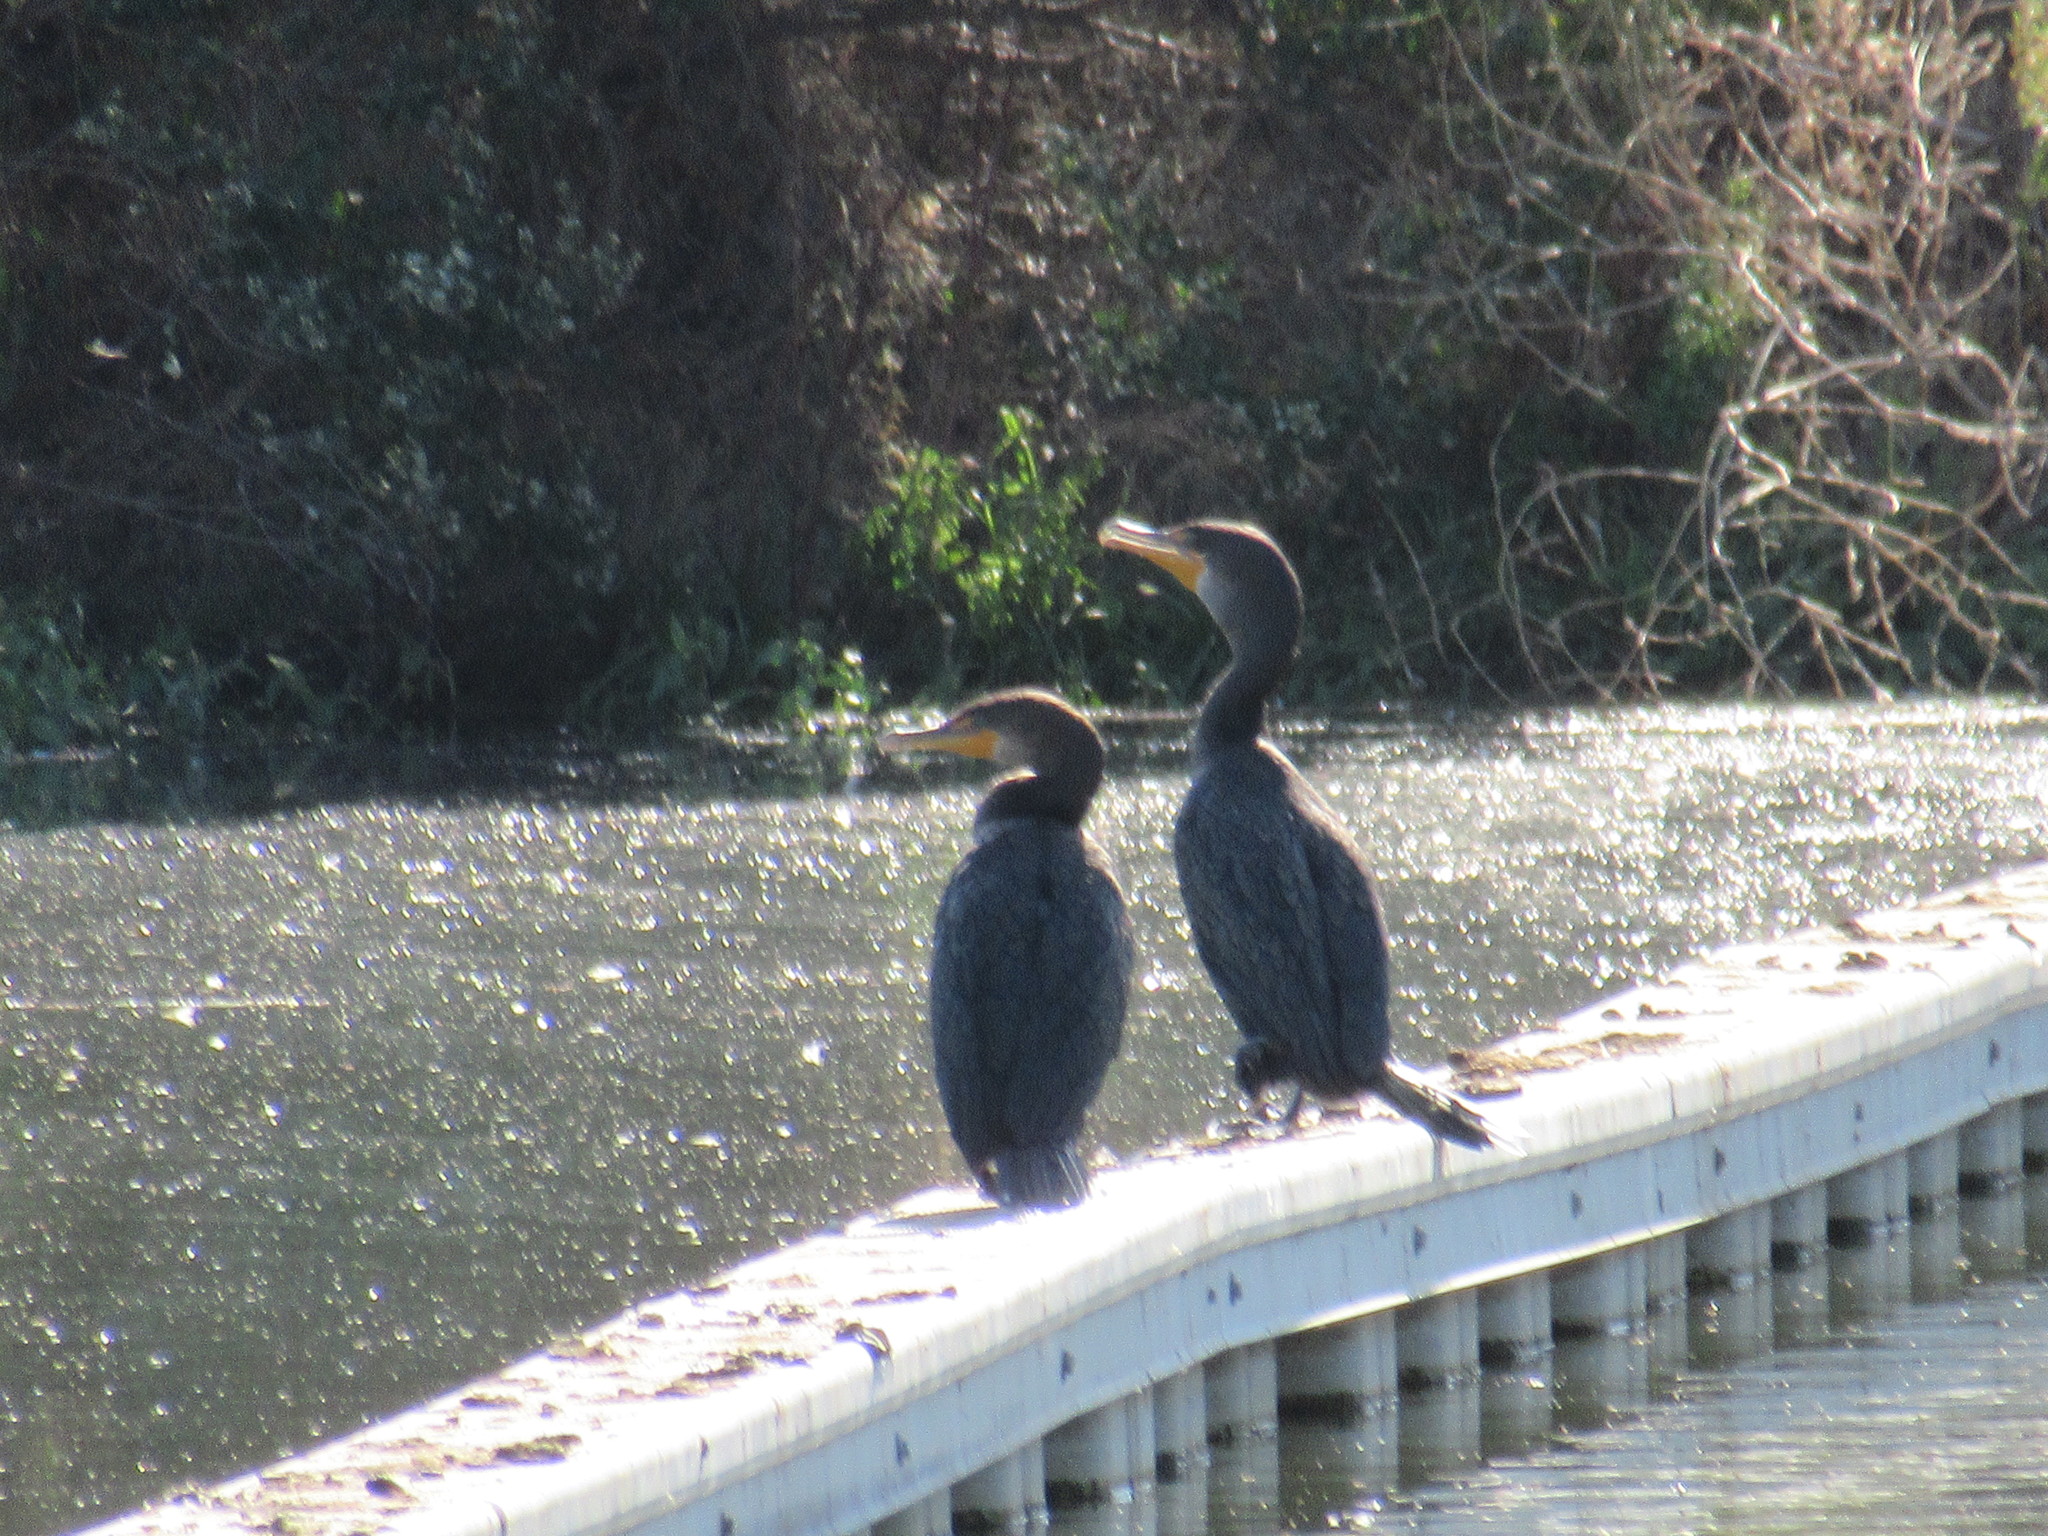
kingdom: Animalia
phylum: Chordata
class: Aves
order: Suliformes
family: Phalacrocoracidae
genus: Phalacrocorax
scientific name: Phalacrocorax auritus
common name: Double-crested cormorant
